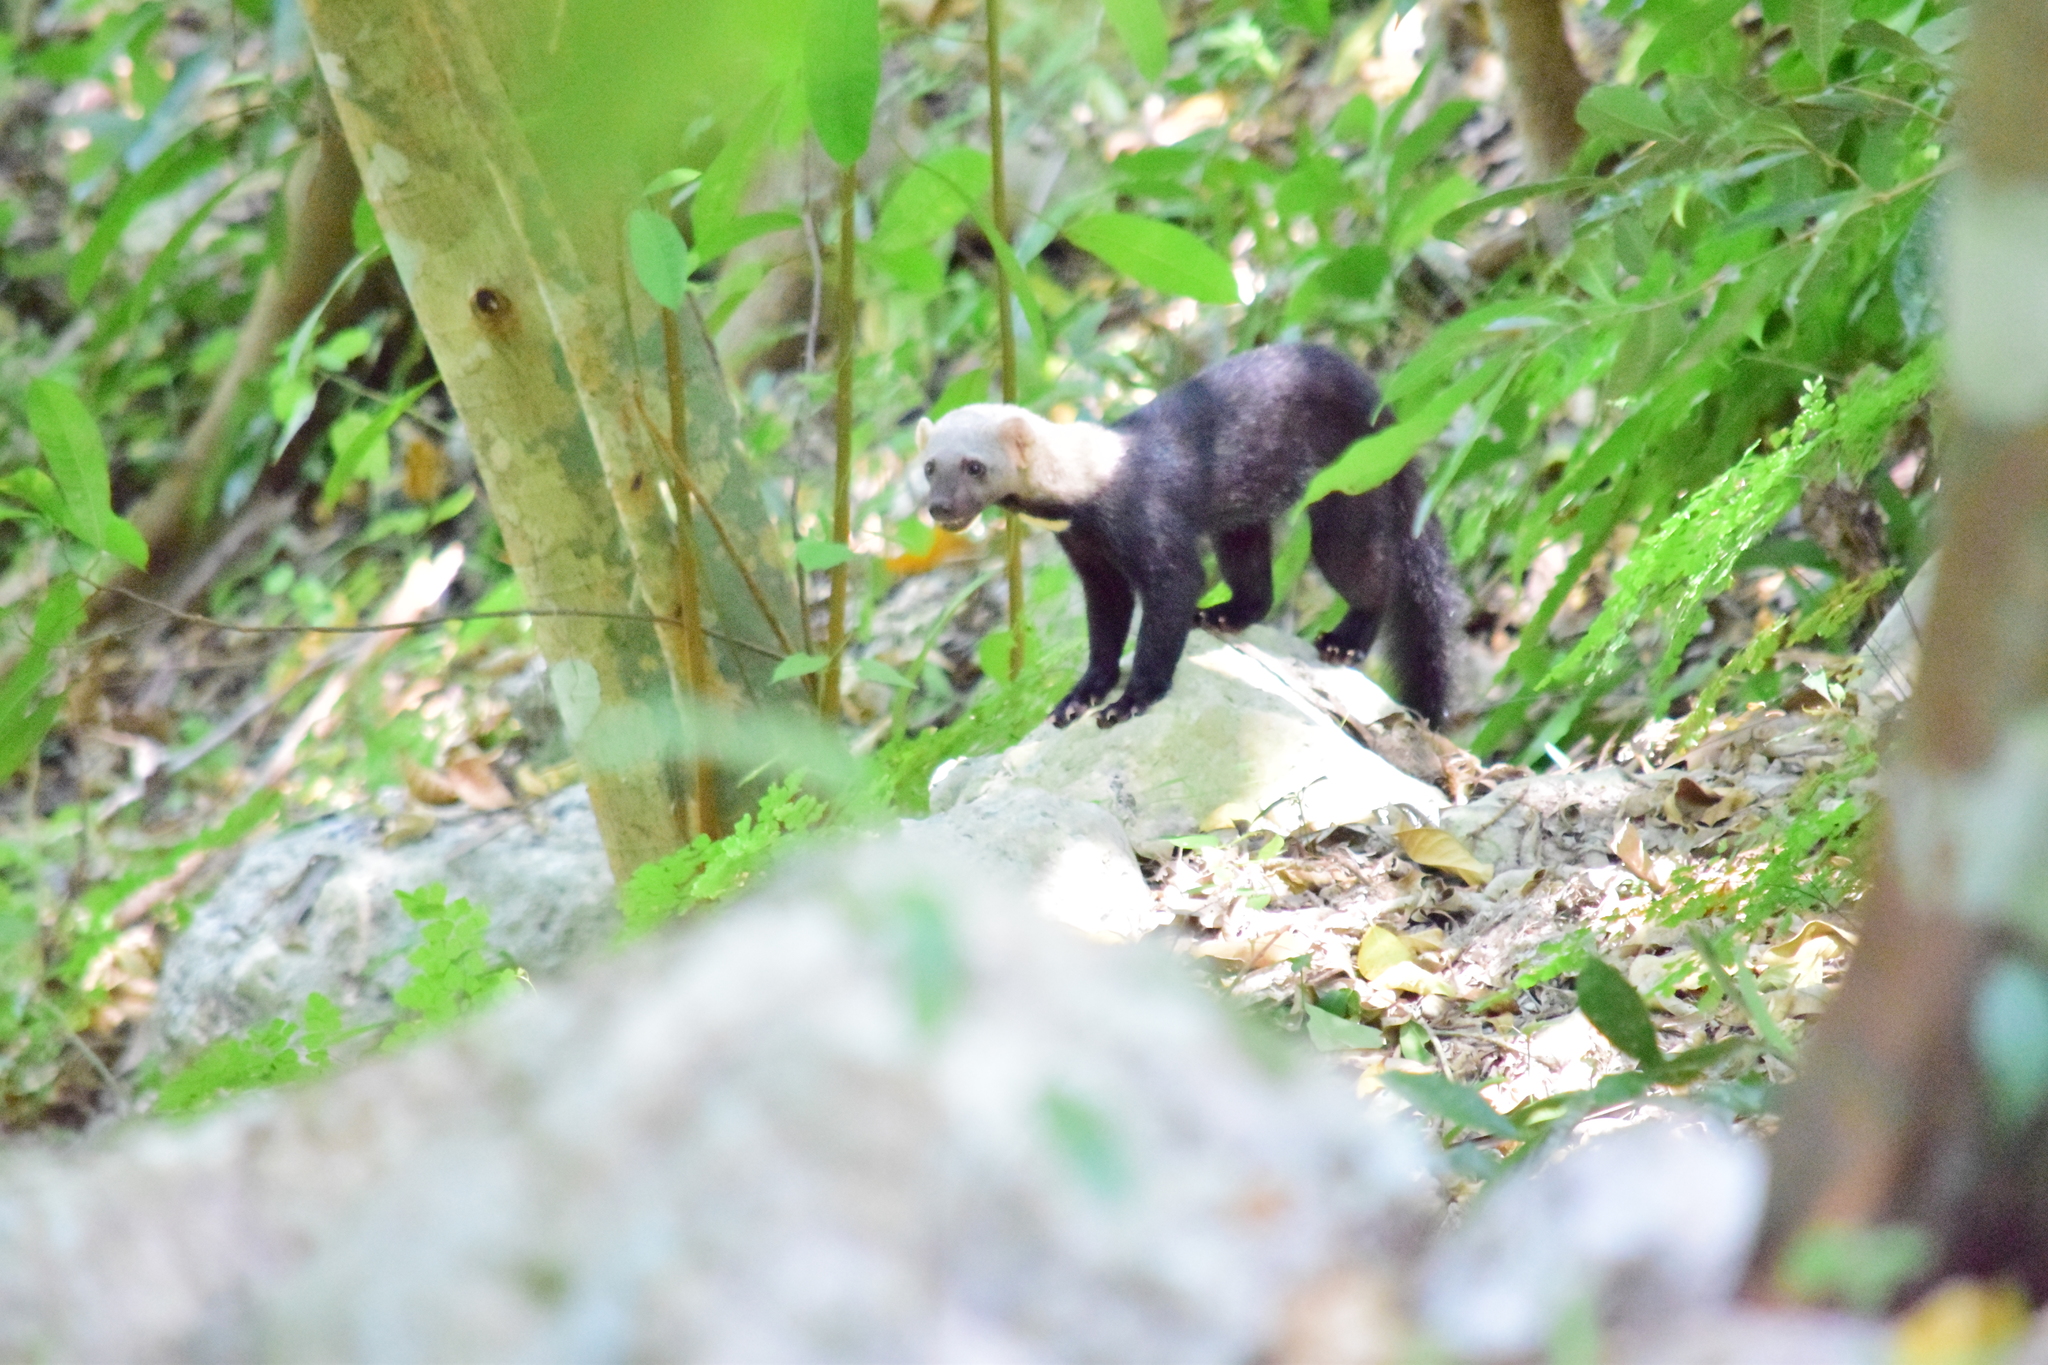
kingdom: Animalia
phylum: Chordata
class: Mammalia
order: Carnivora
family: Mustelidae
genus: Eira
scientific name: Eira barbara
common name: Tayra
